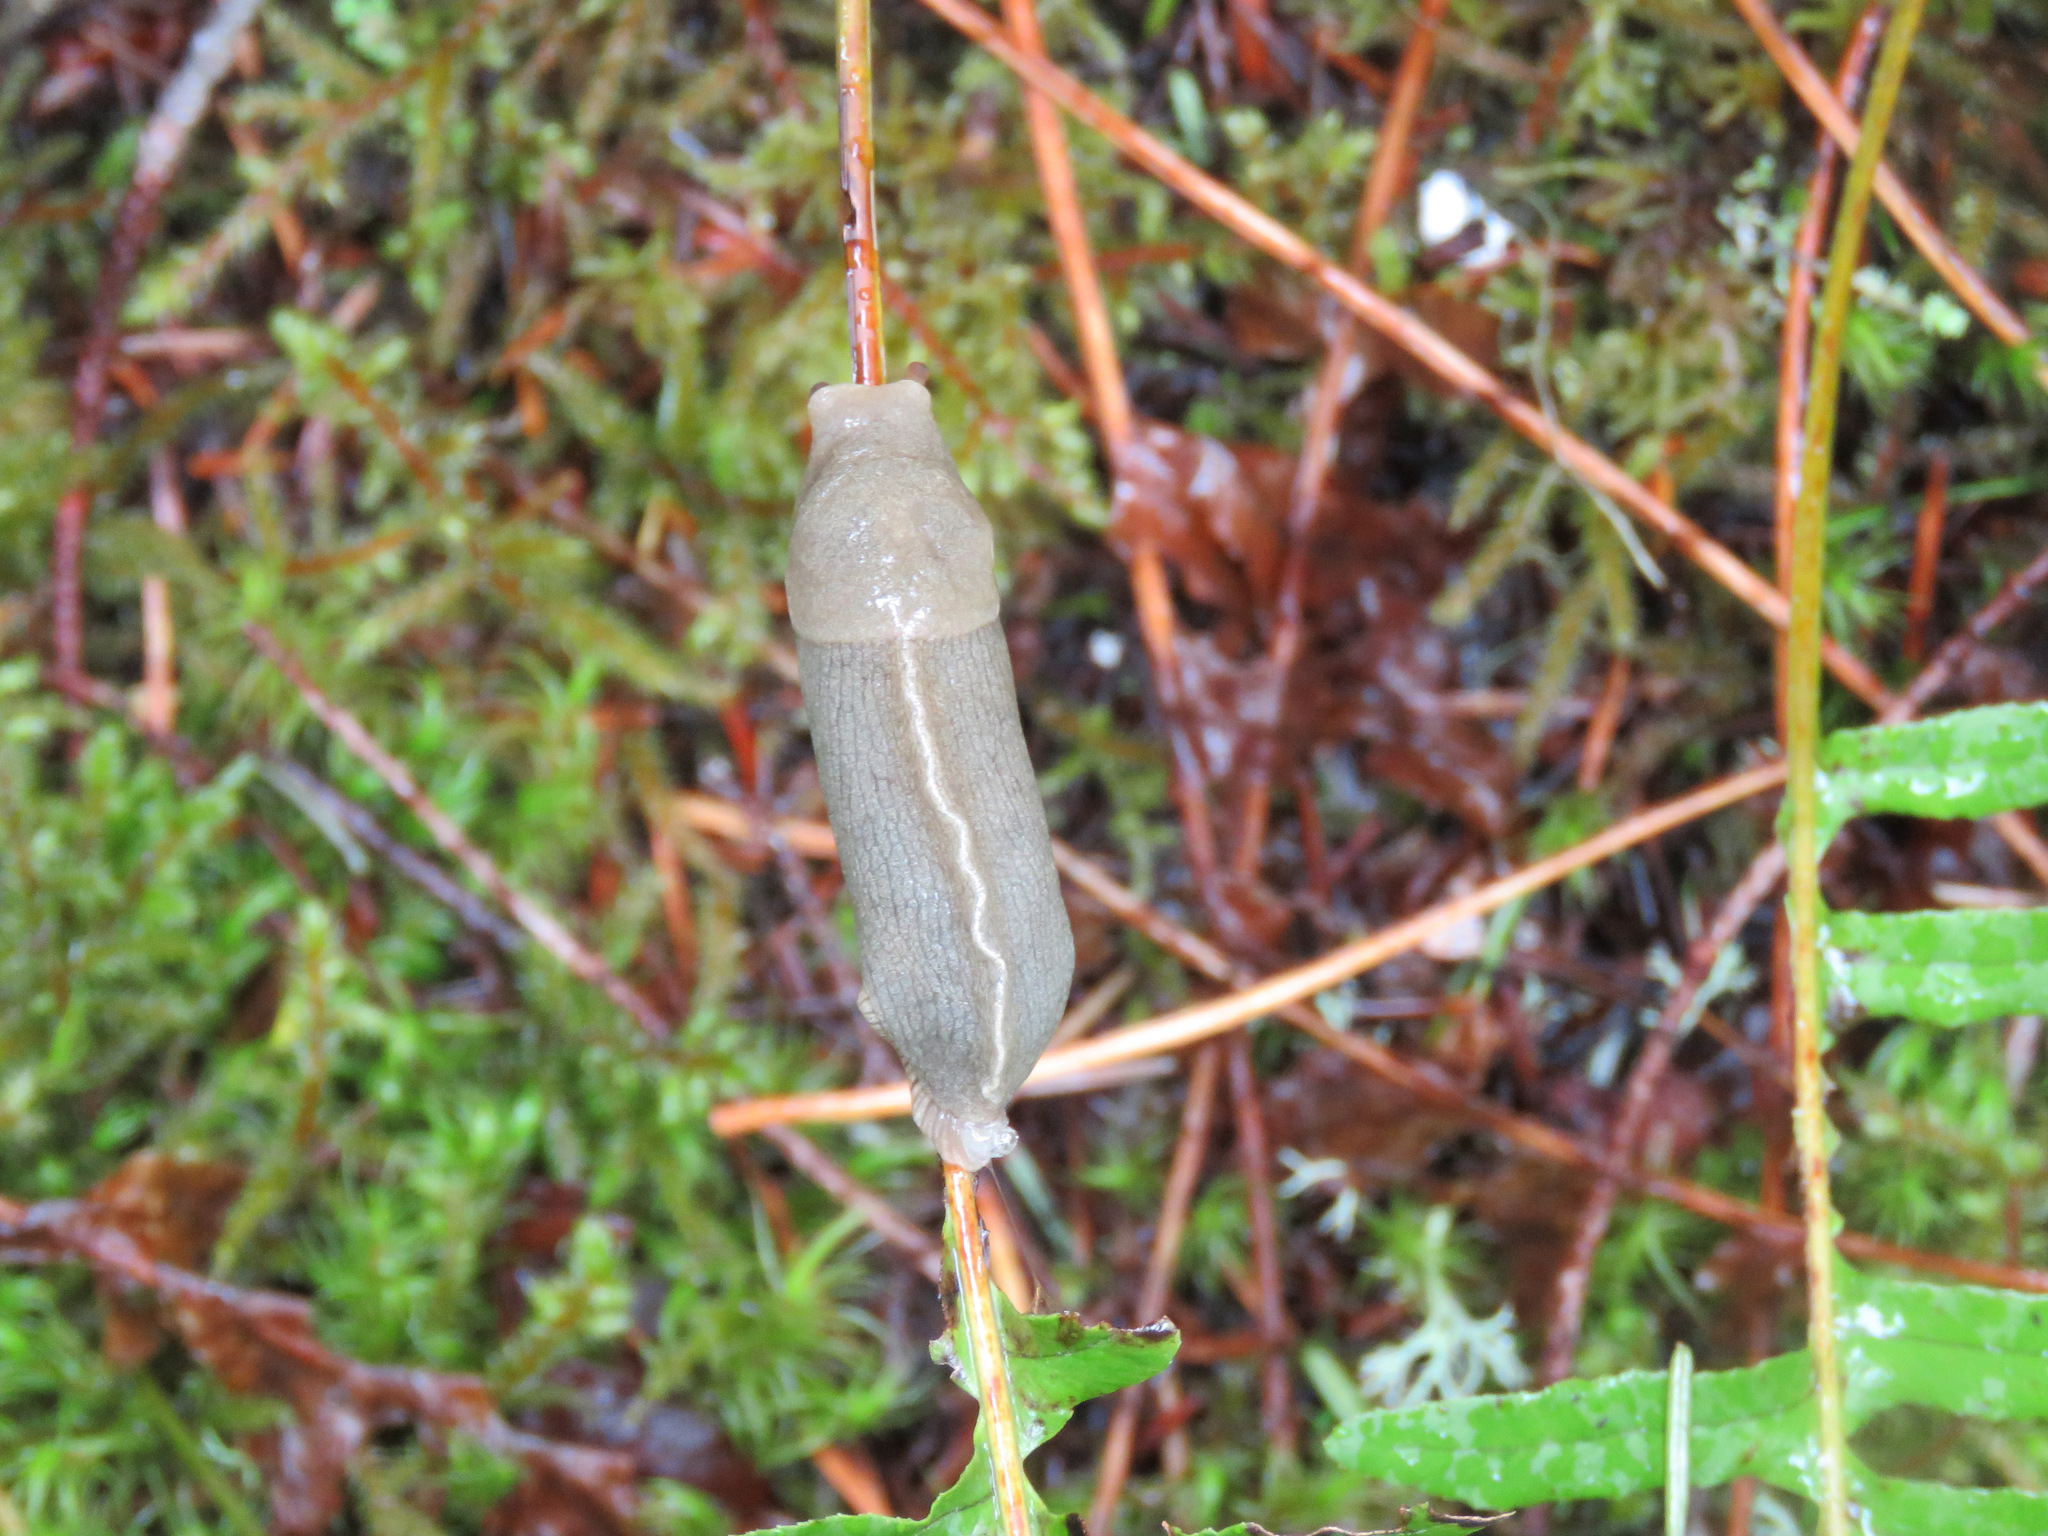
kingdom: Animalia
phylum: Mollusca
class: Gastropoda
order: Stylommatophora
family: Ariolimacidae
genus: Ariolimax
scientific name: Ariolimax columbianus
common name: Pacific banana slug
